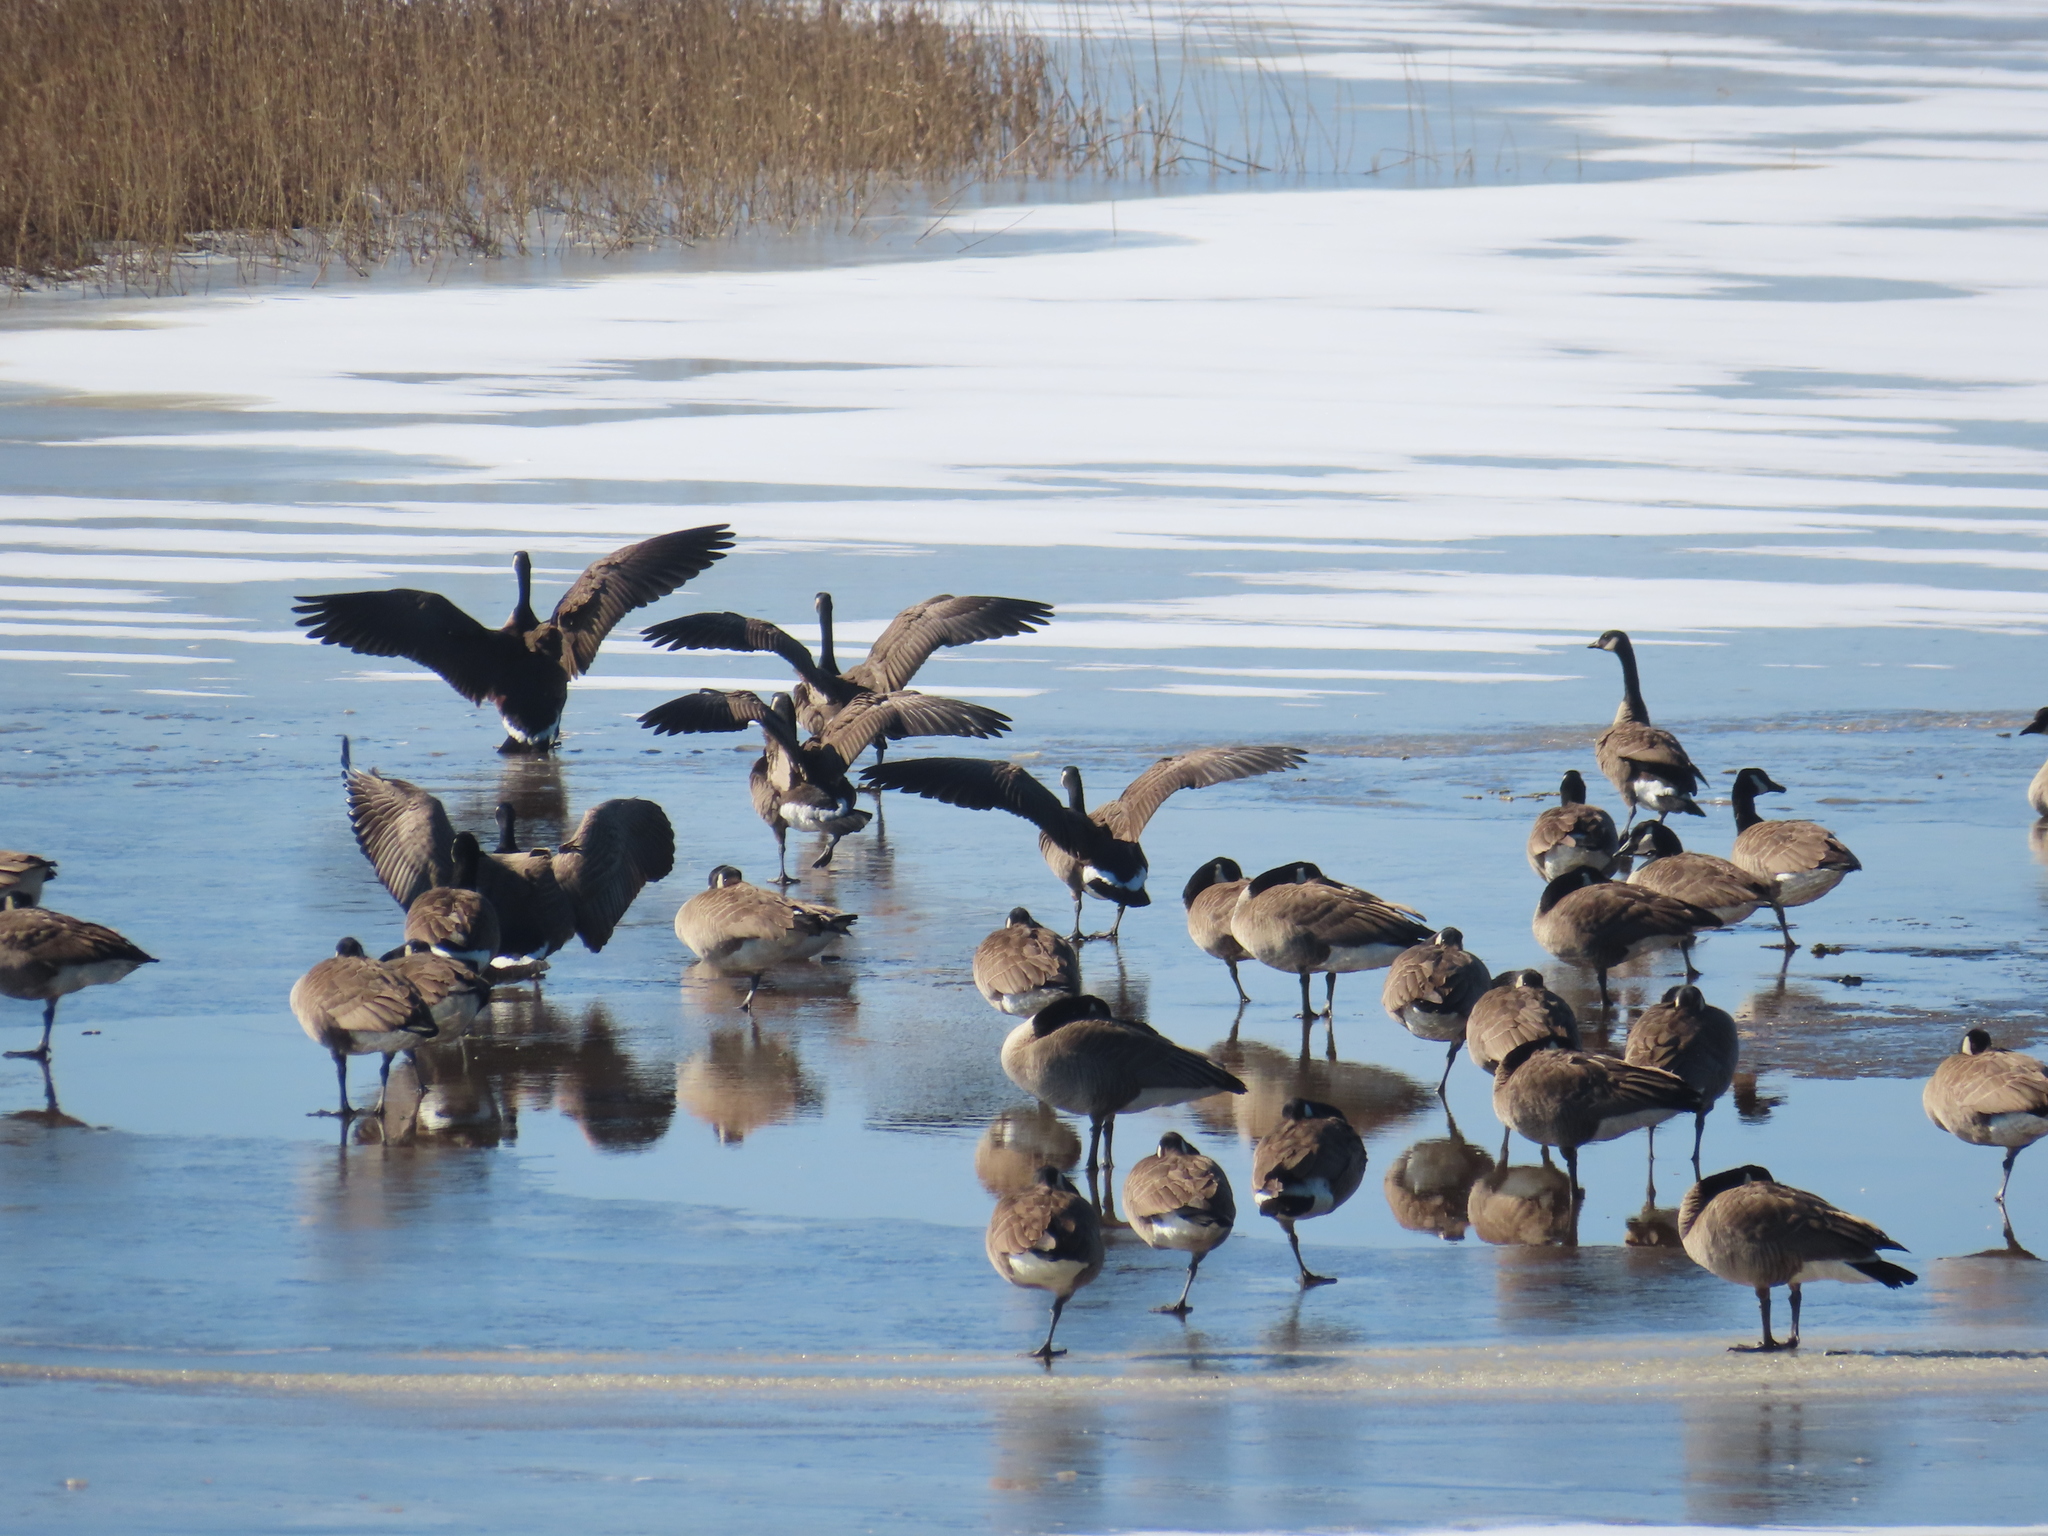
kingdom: Animalia
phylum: Chordata
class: Aves
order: Anseriformes
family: Anatidae
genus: Branta
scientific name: Branta canadensis
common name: Canada goose
